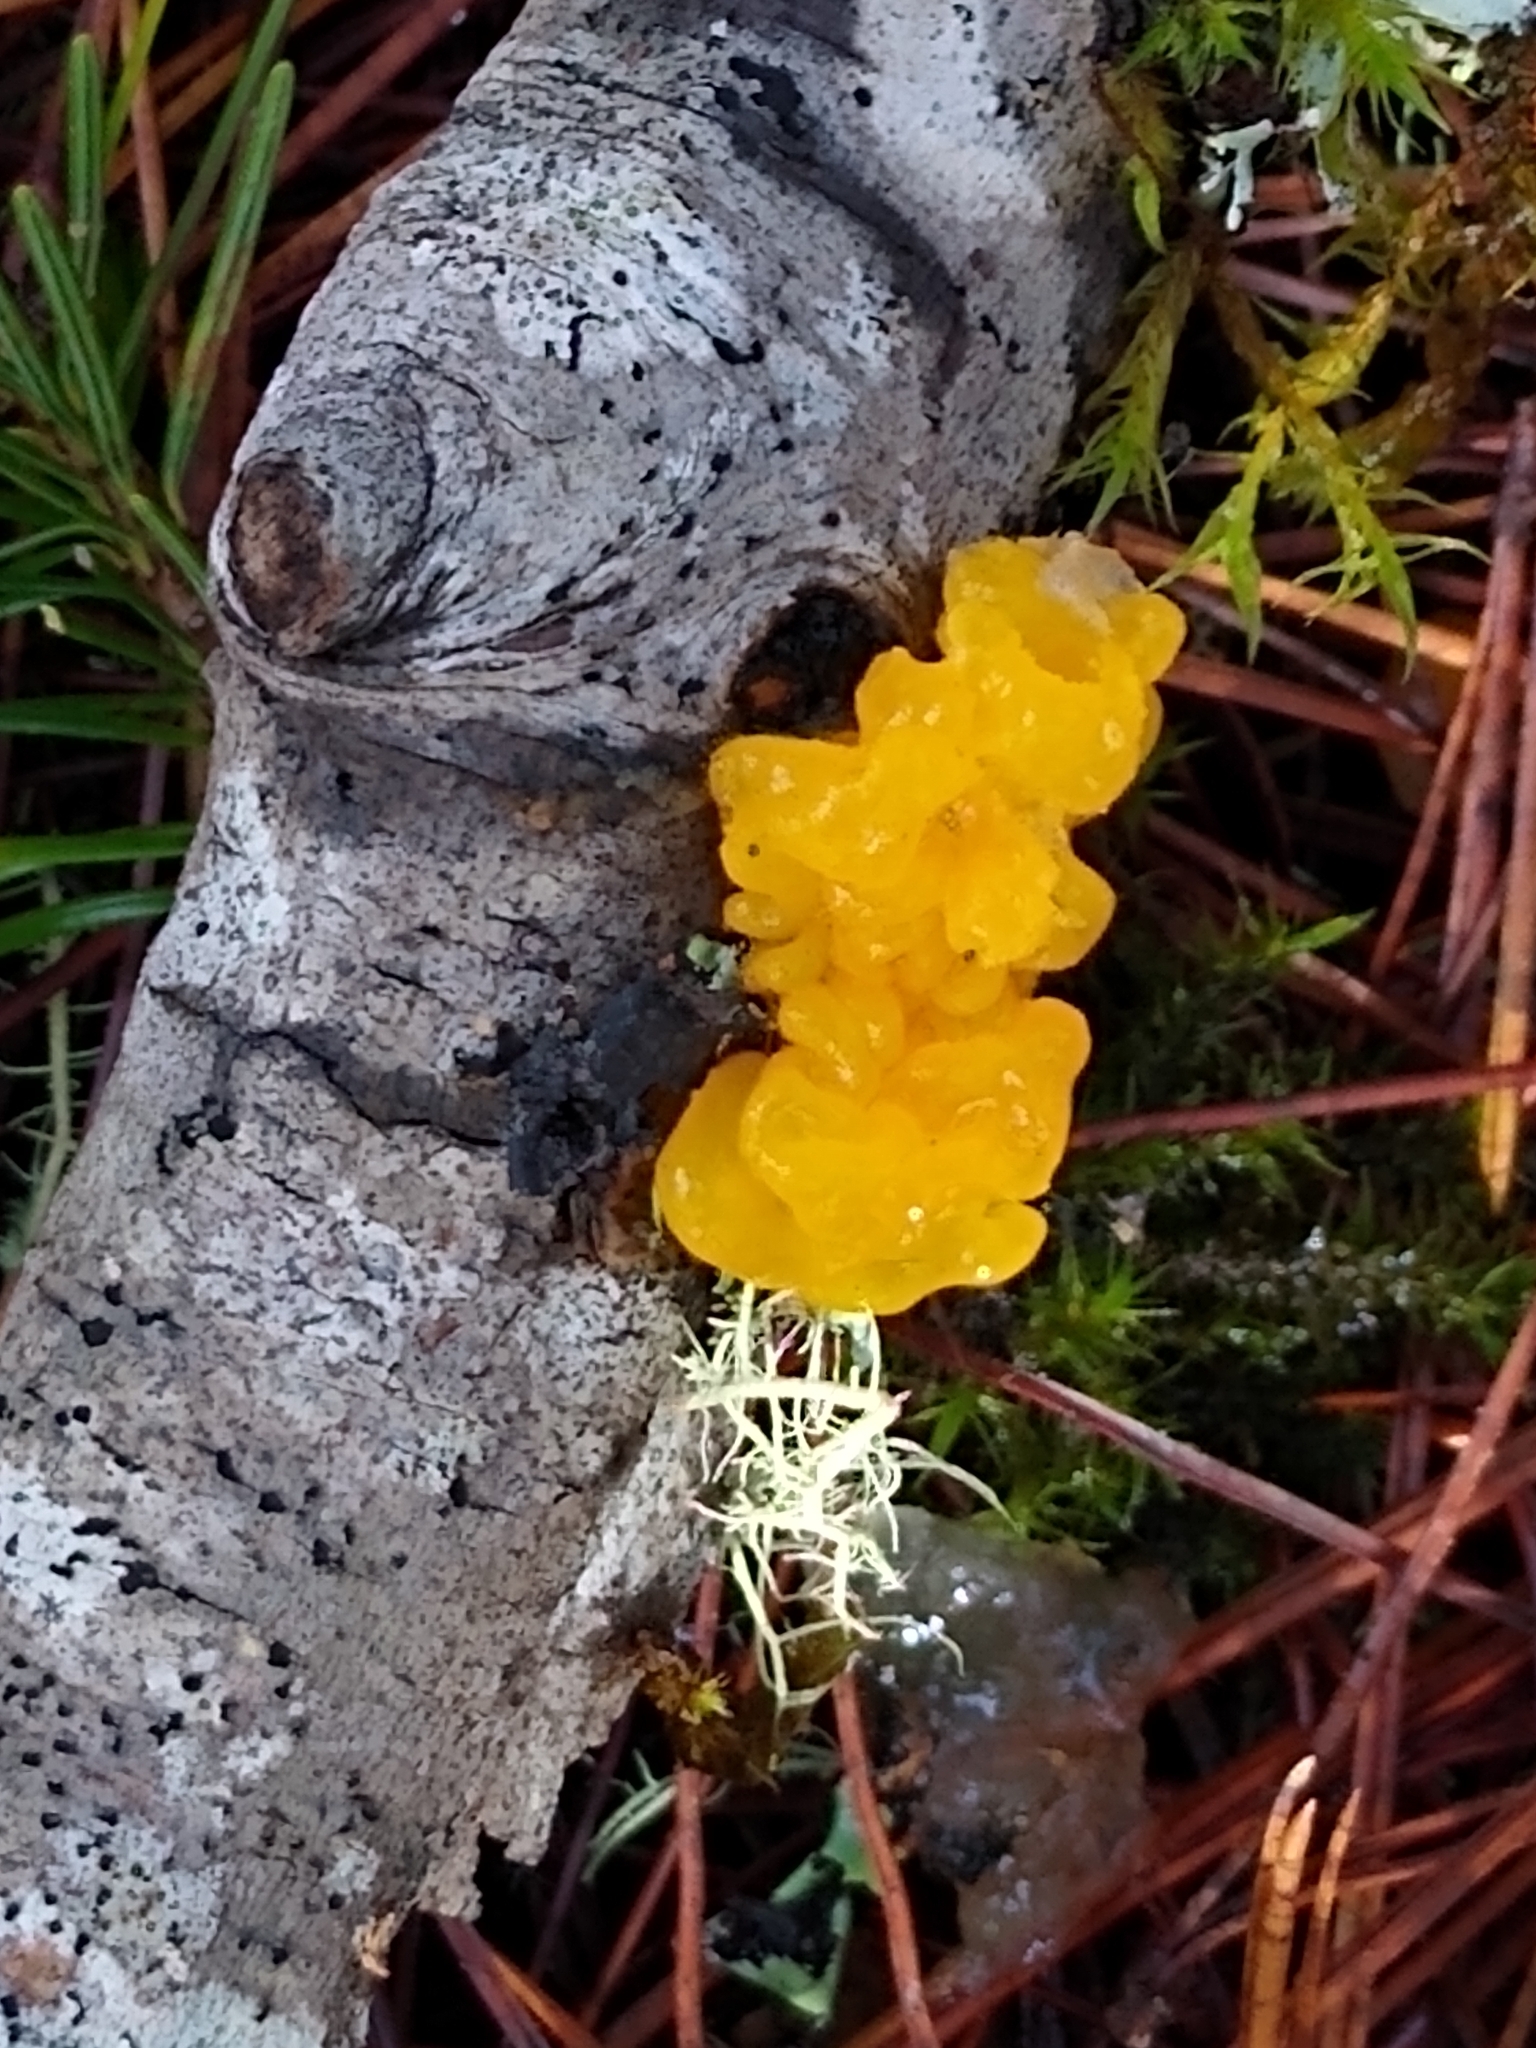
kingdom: Fungi
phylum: Basidiomycota
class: Tremellomycetes
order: Tremellales
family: Tremellaceae
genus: Tremella
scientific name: Tremella mesenterica
